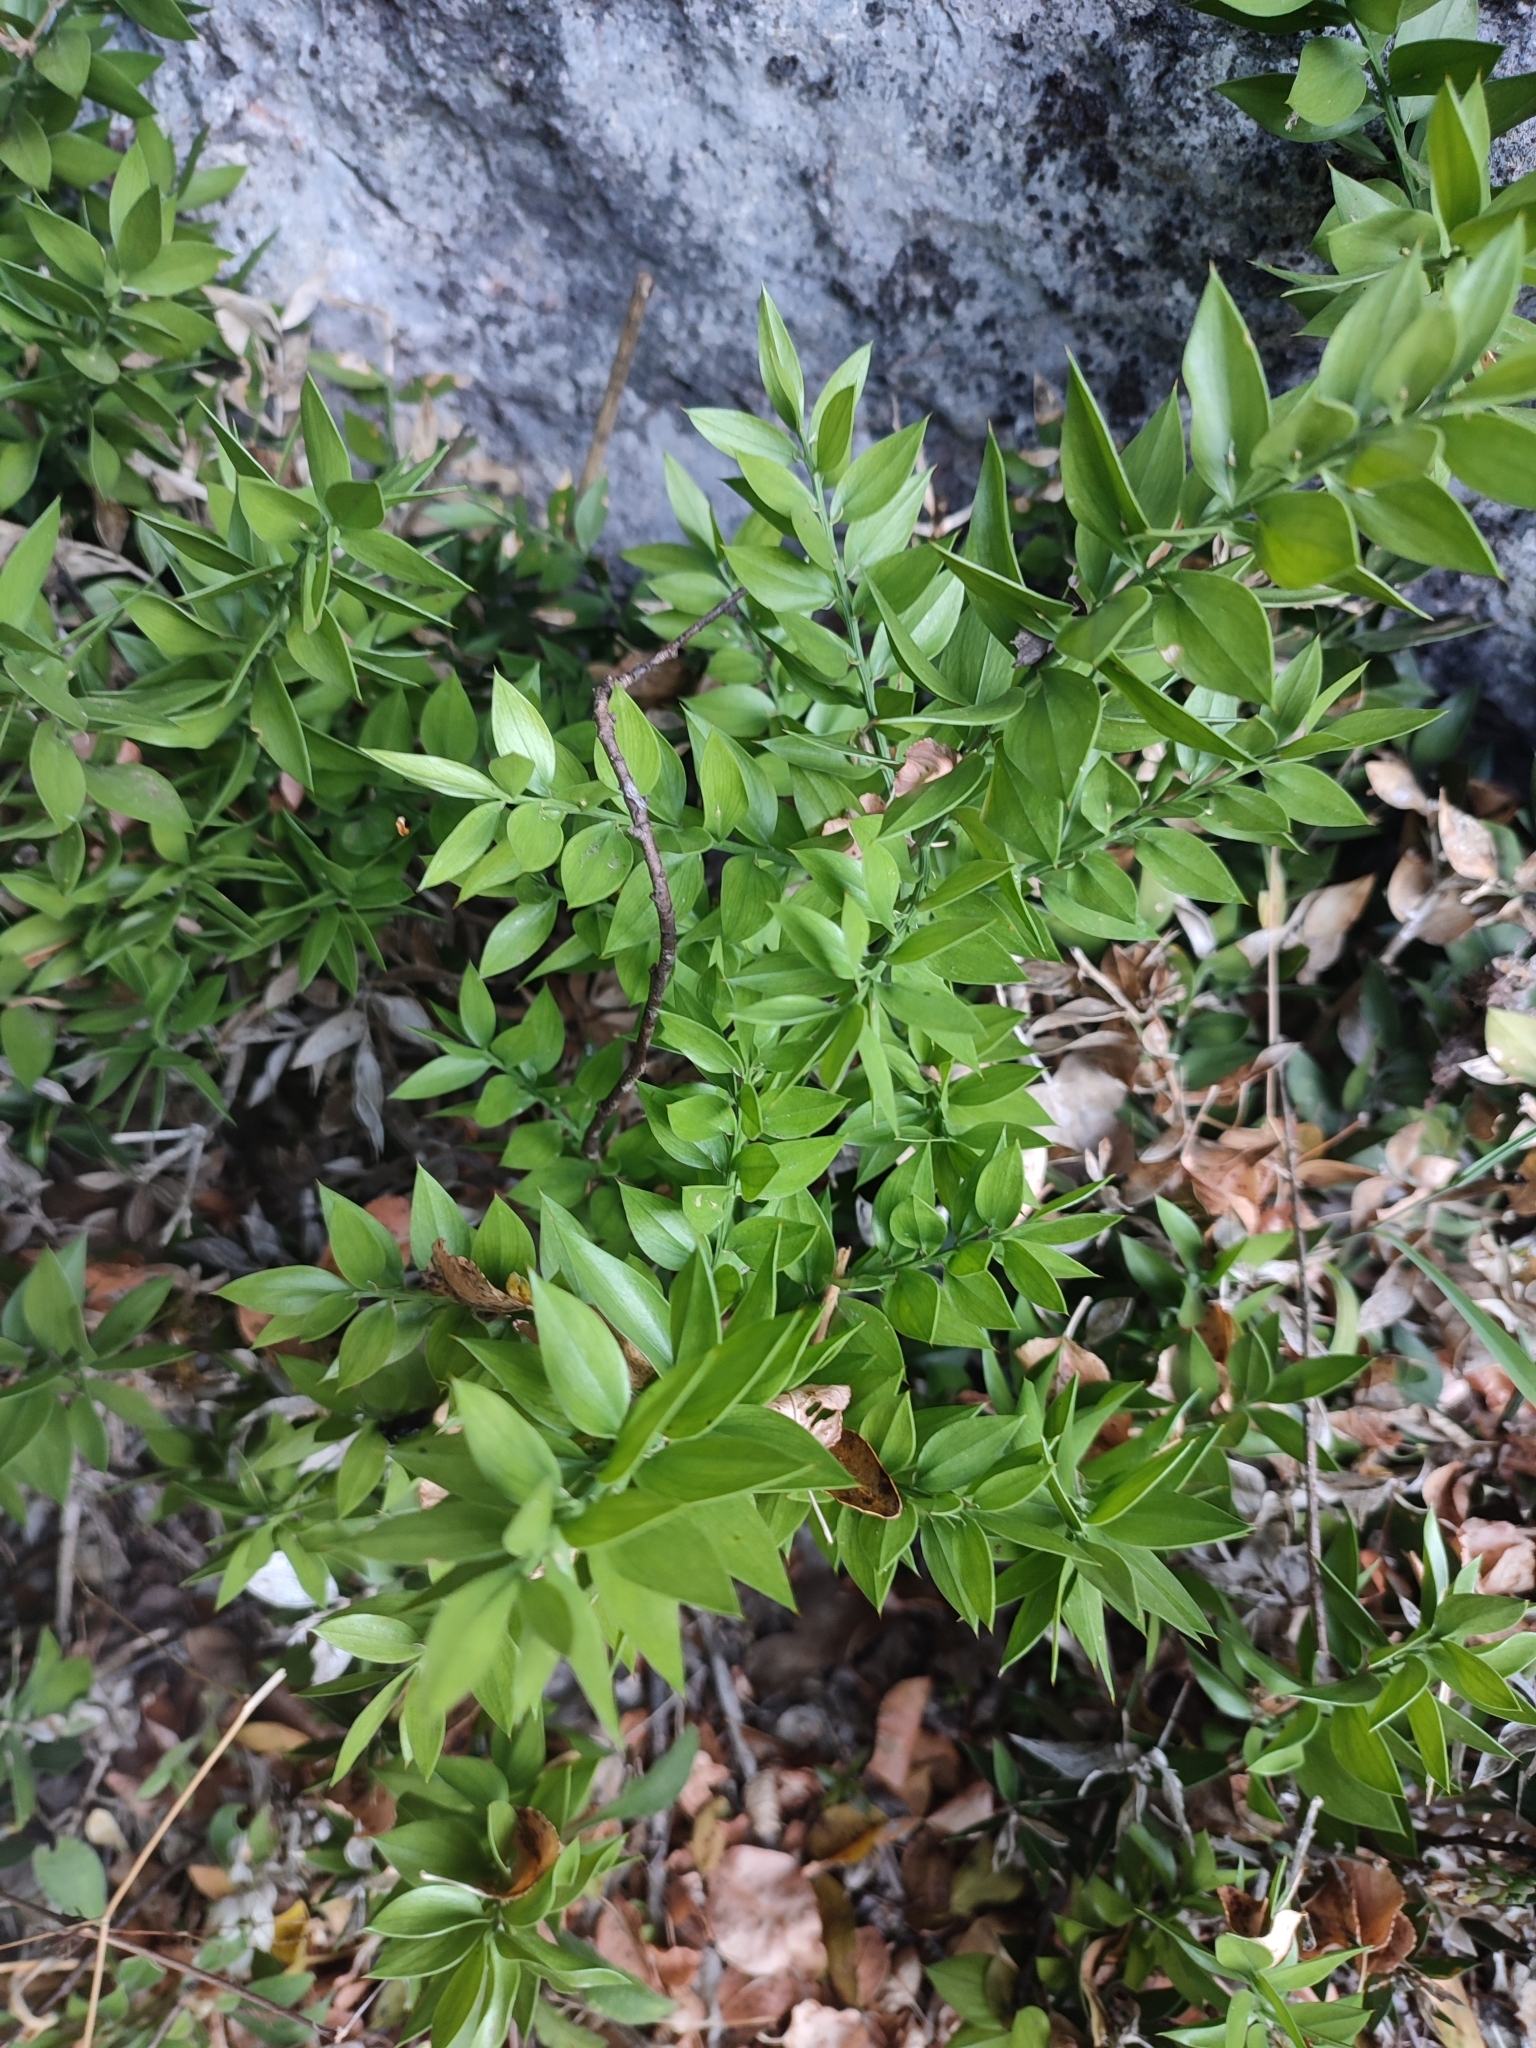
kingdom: Plantae
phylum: Tracheophyta
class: Liliopsida
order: Asparagales
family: Asparagaceae
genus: Ruscus
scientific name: Ruscus aculeatus
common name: Butcher's-broom
